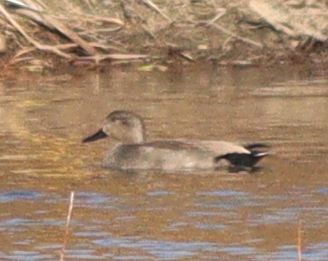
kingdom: Animalia
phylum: Chordata
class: Aves
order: Anseriformes
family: Anatidae
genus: Mareca
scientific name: Mareca strepera
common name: Gadwall
